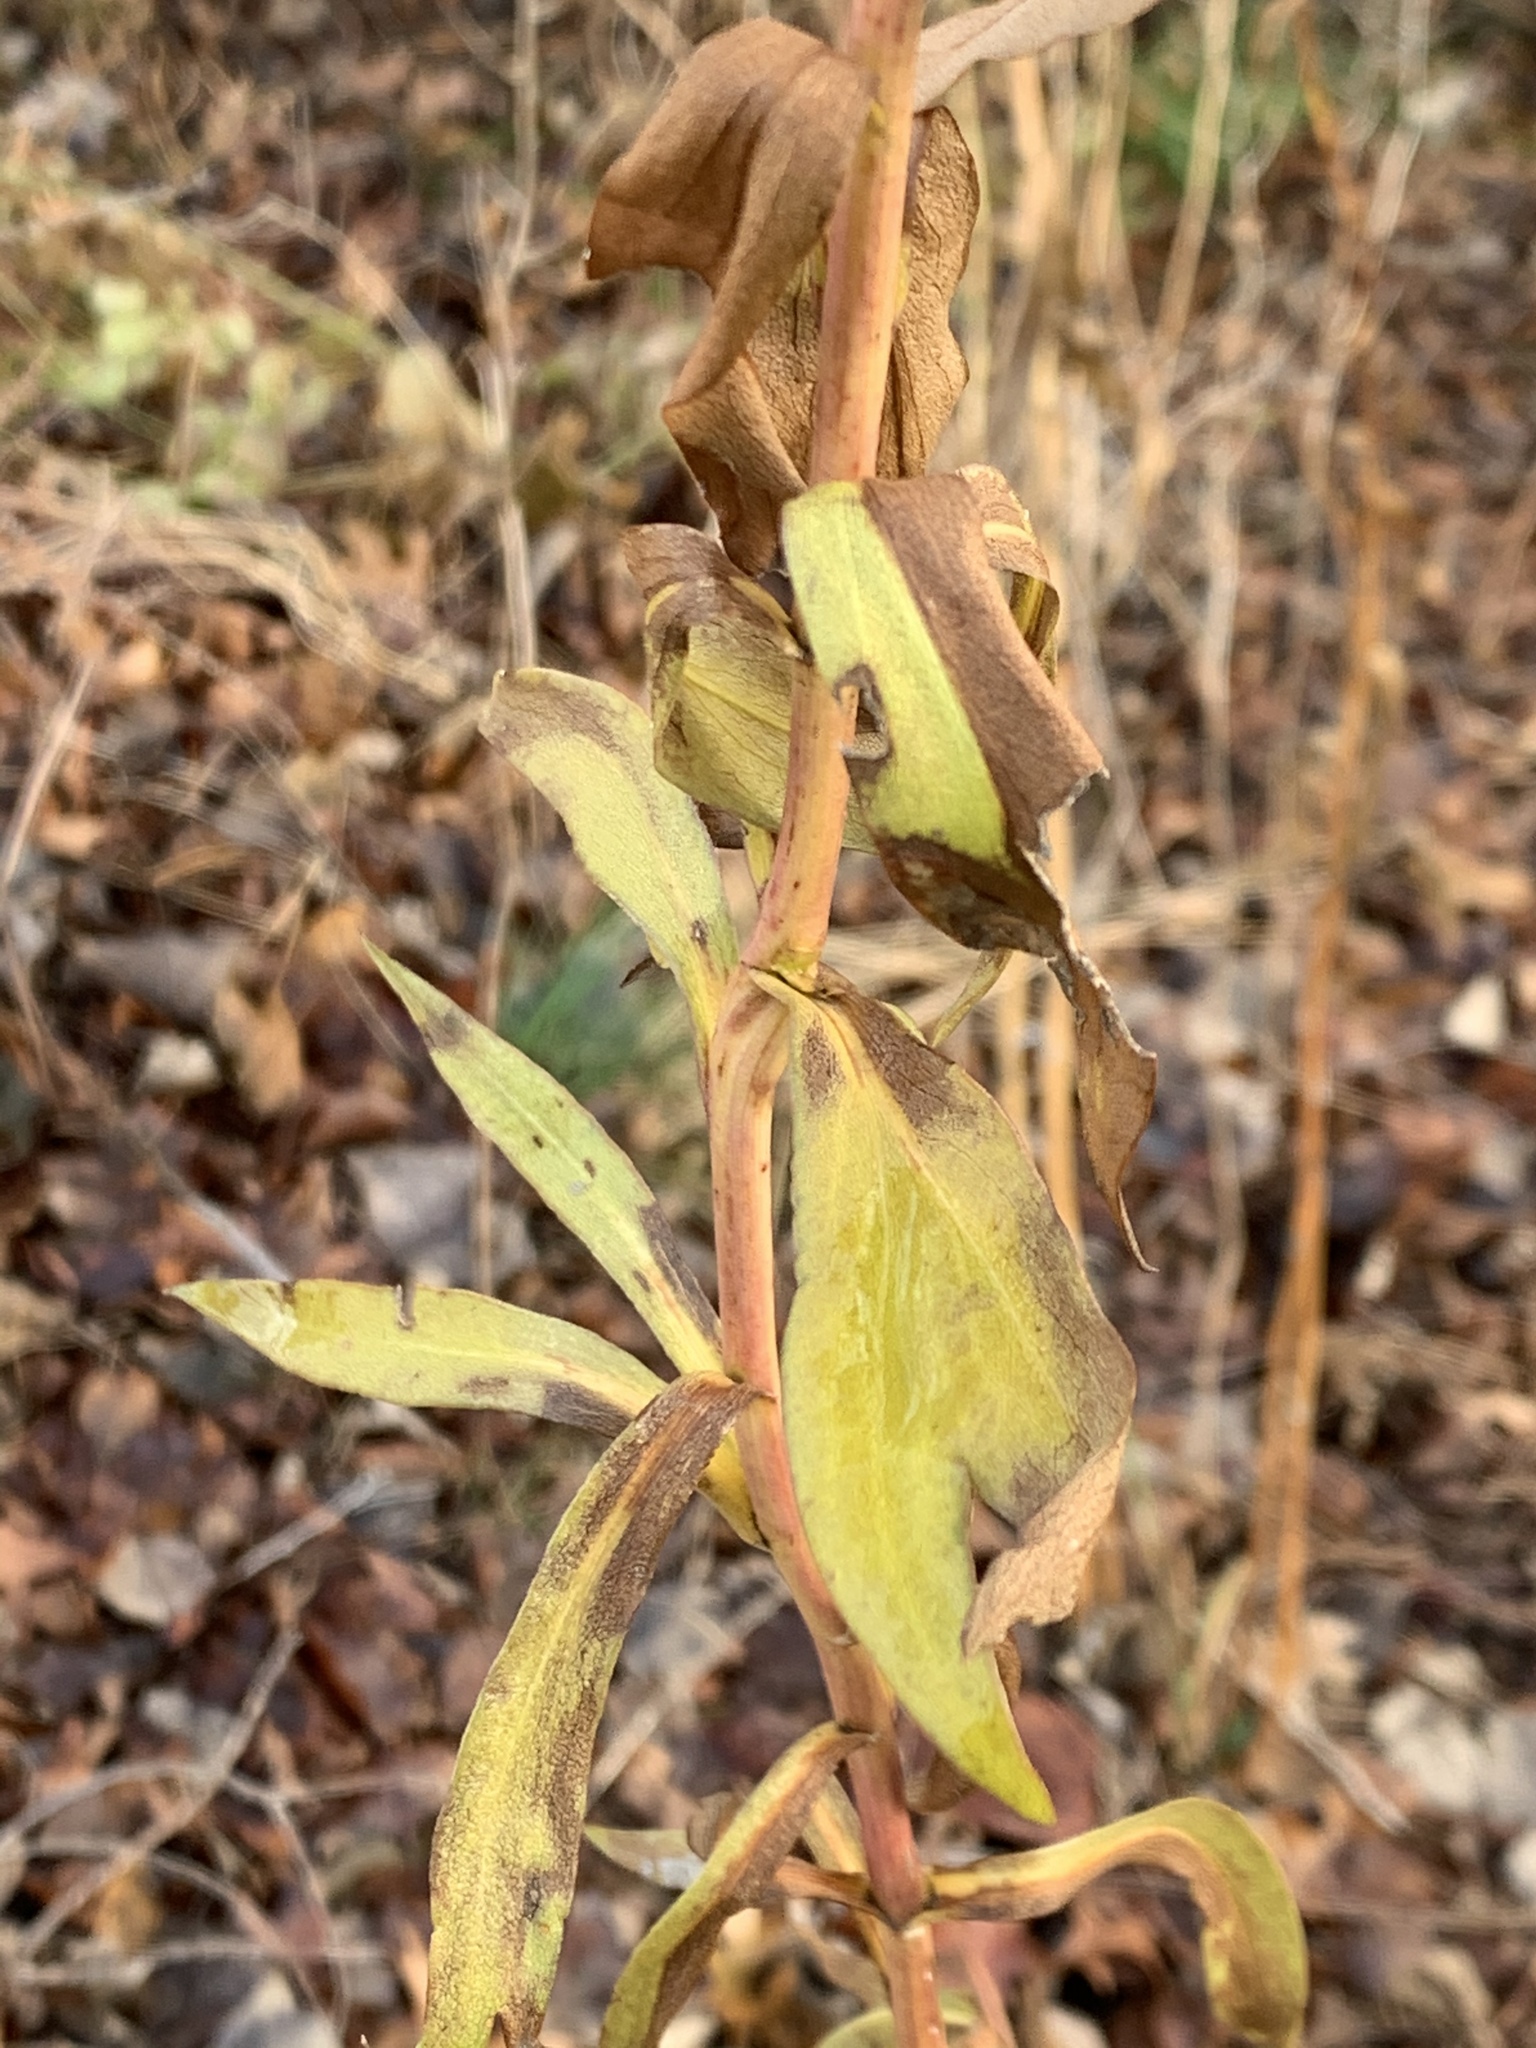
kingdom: Plantae
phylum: Tracheophyta
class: Magnoliopsida
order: Asterales
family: Asteraceae
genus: Solidago
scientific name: Solidago sempervirens
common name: Salt-marsh goldenrod
